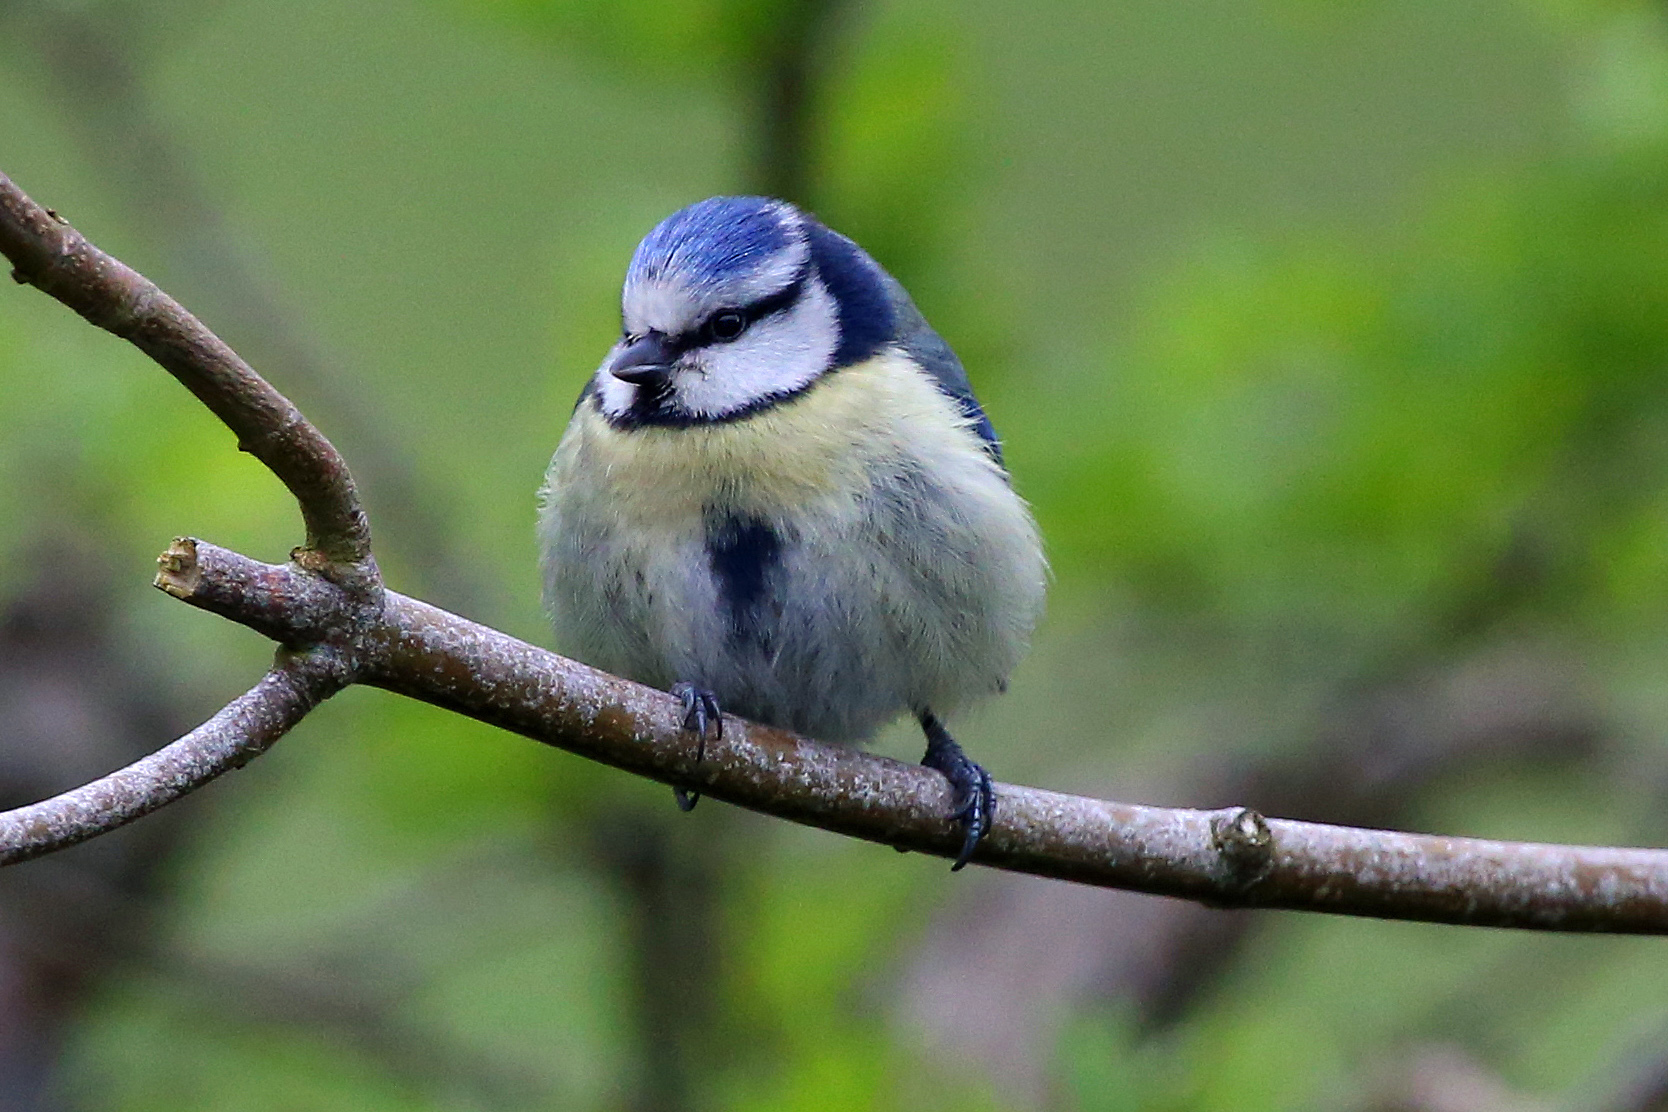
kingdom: Animalia
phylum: Chordata
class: Aves
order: Passeriformes
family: Paridae
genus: Cyanistes
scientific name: Cyanistes caeruleus
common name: Eurasian blue tit
